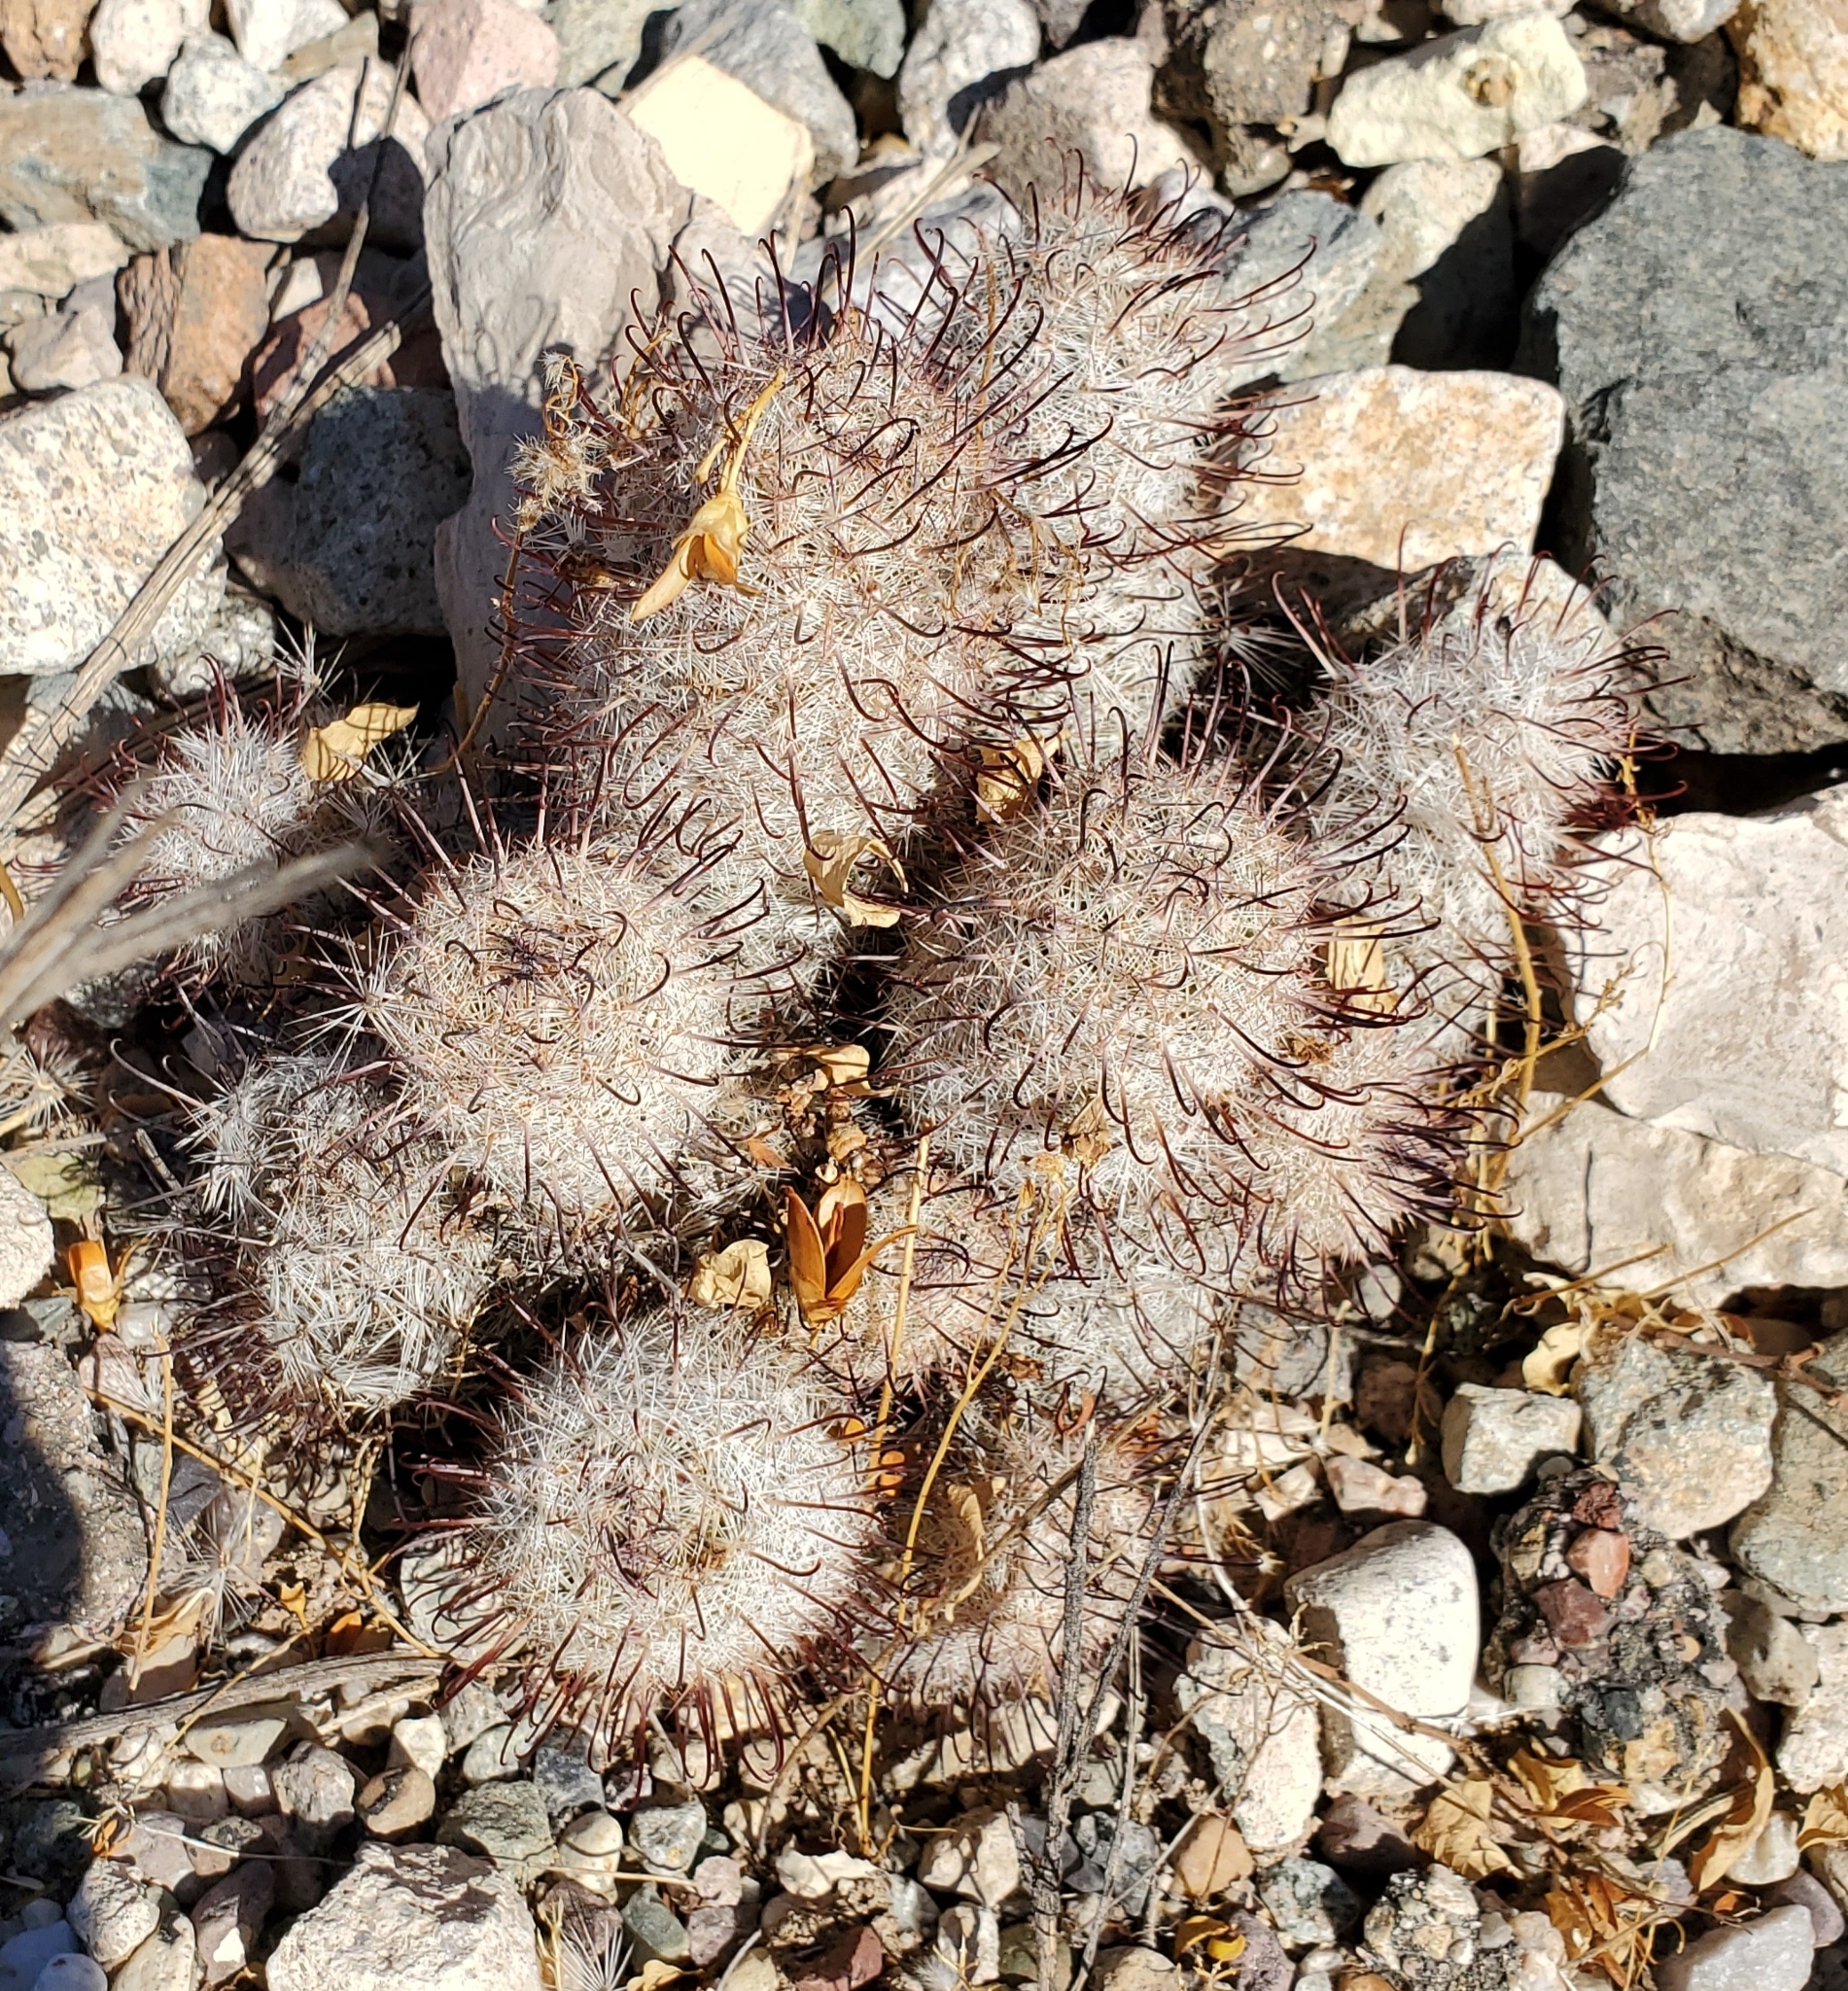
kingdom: Plantae
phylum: Tracheophyta
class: Magnoliopsida
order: Caryophyllales
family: Cactaceae
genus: Cochemiea
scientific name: Cochemiea grahamii
